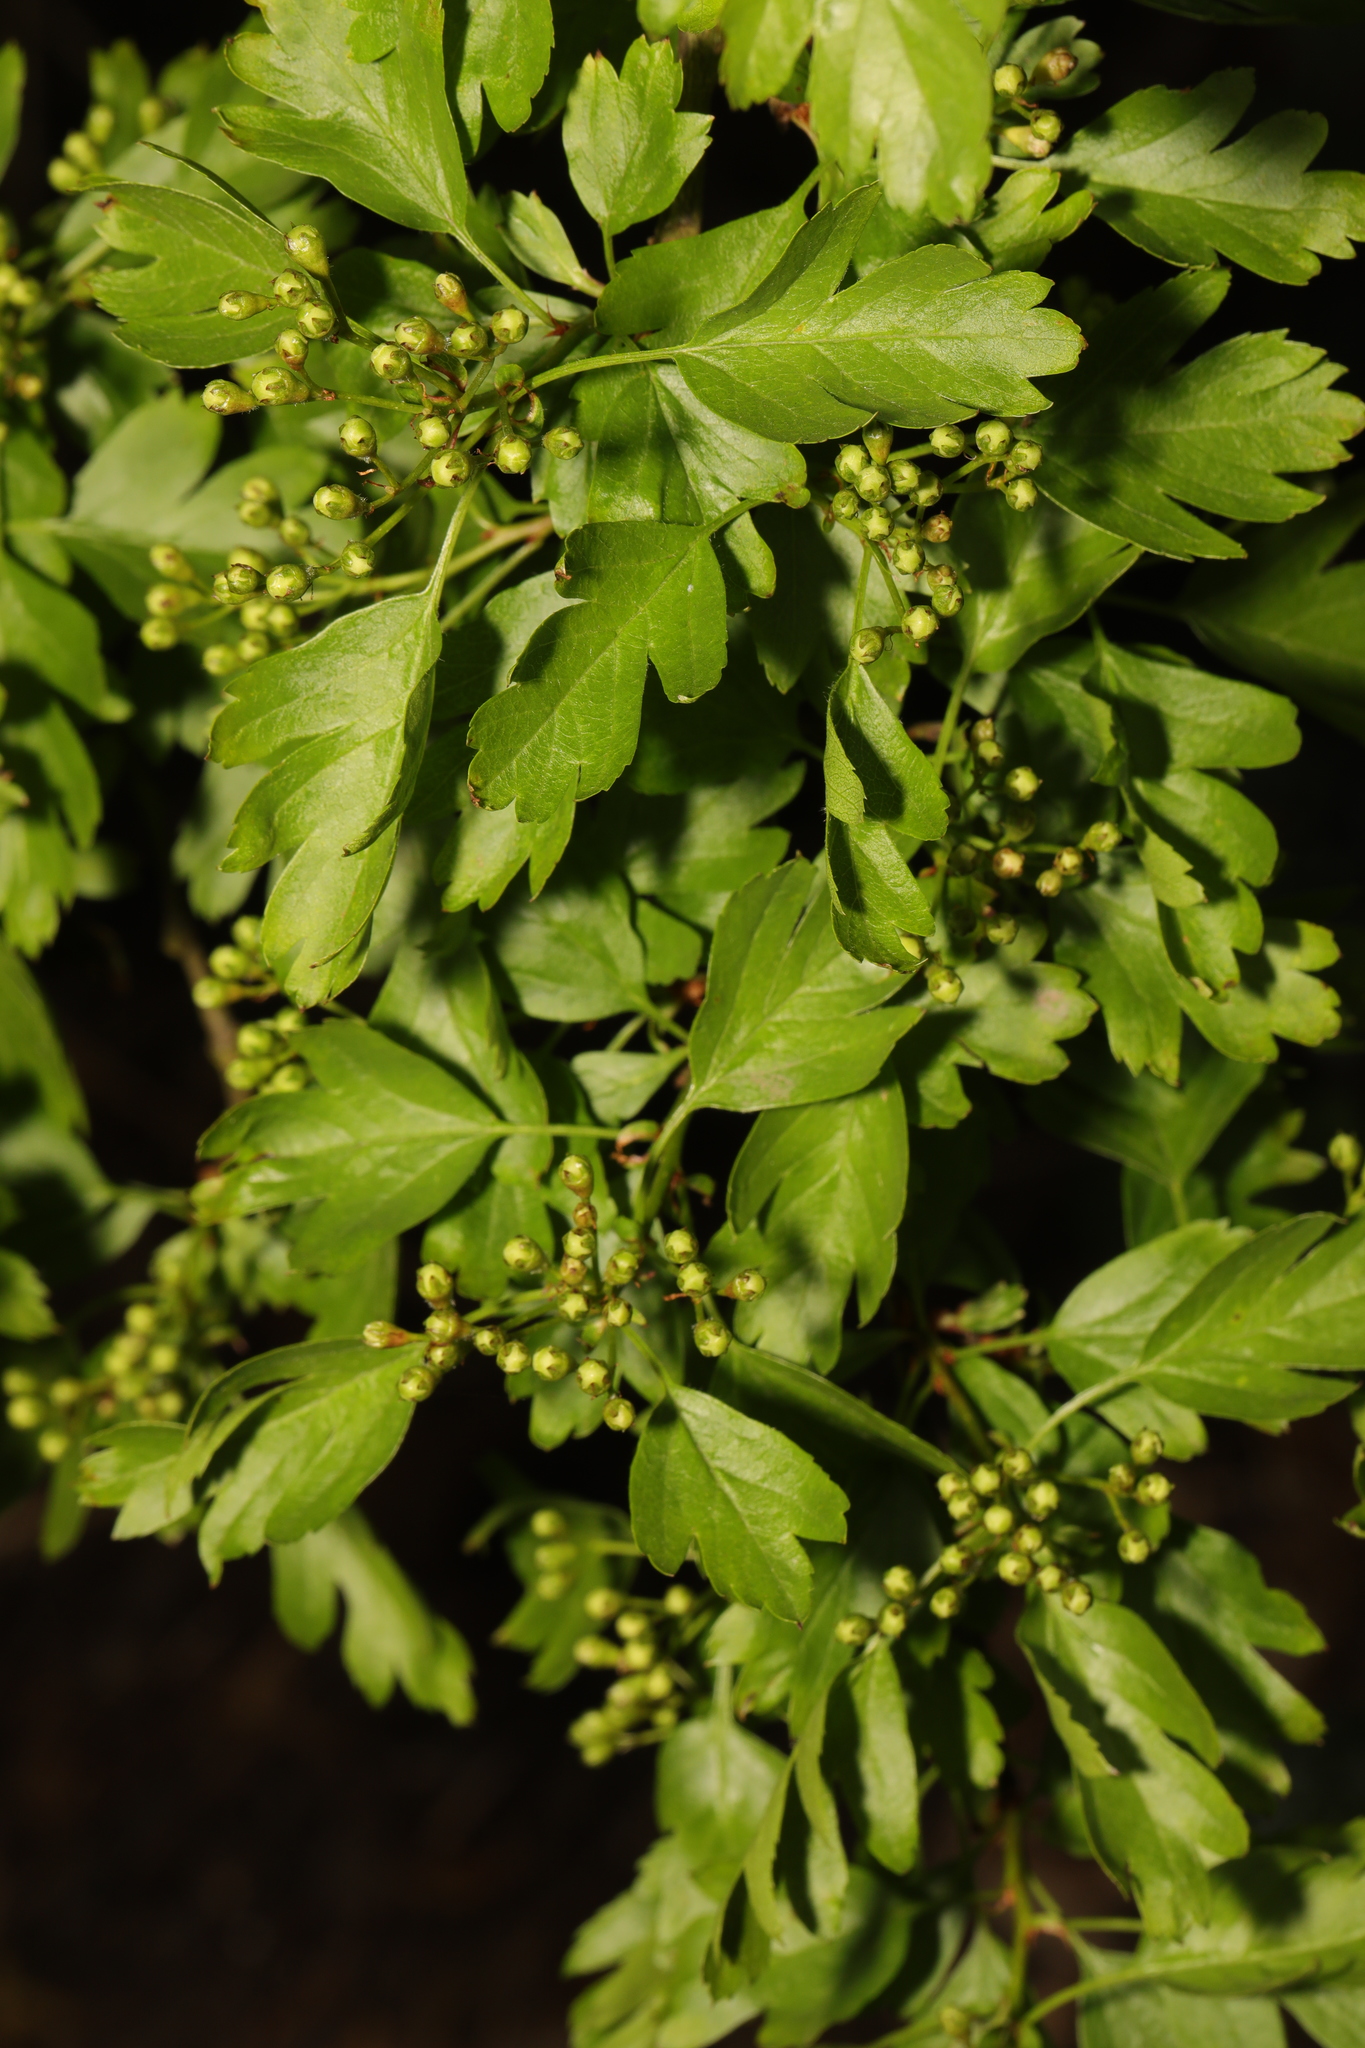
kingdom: Plantae
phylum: Tracheophyta
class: Magnoliopsida
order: Rosales
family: Rosaceae
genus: Crataegus
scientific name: Crataegus monogyna
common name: Hawthorn
